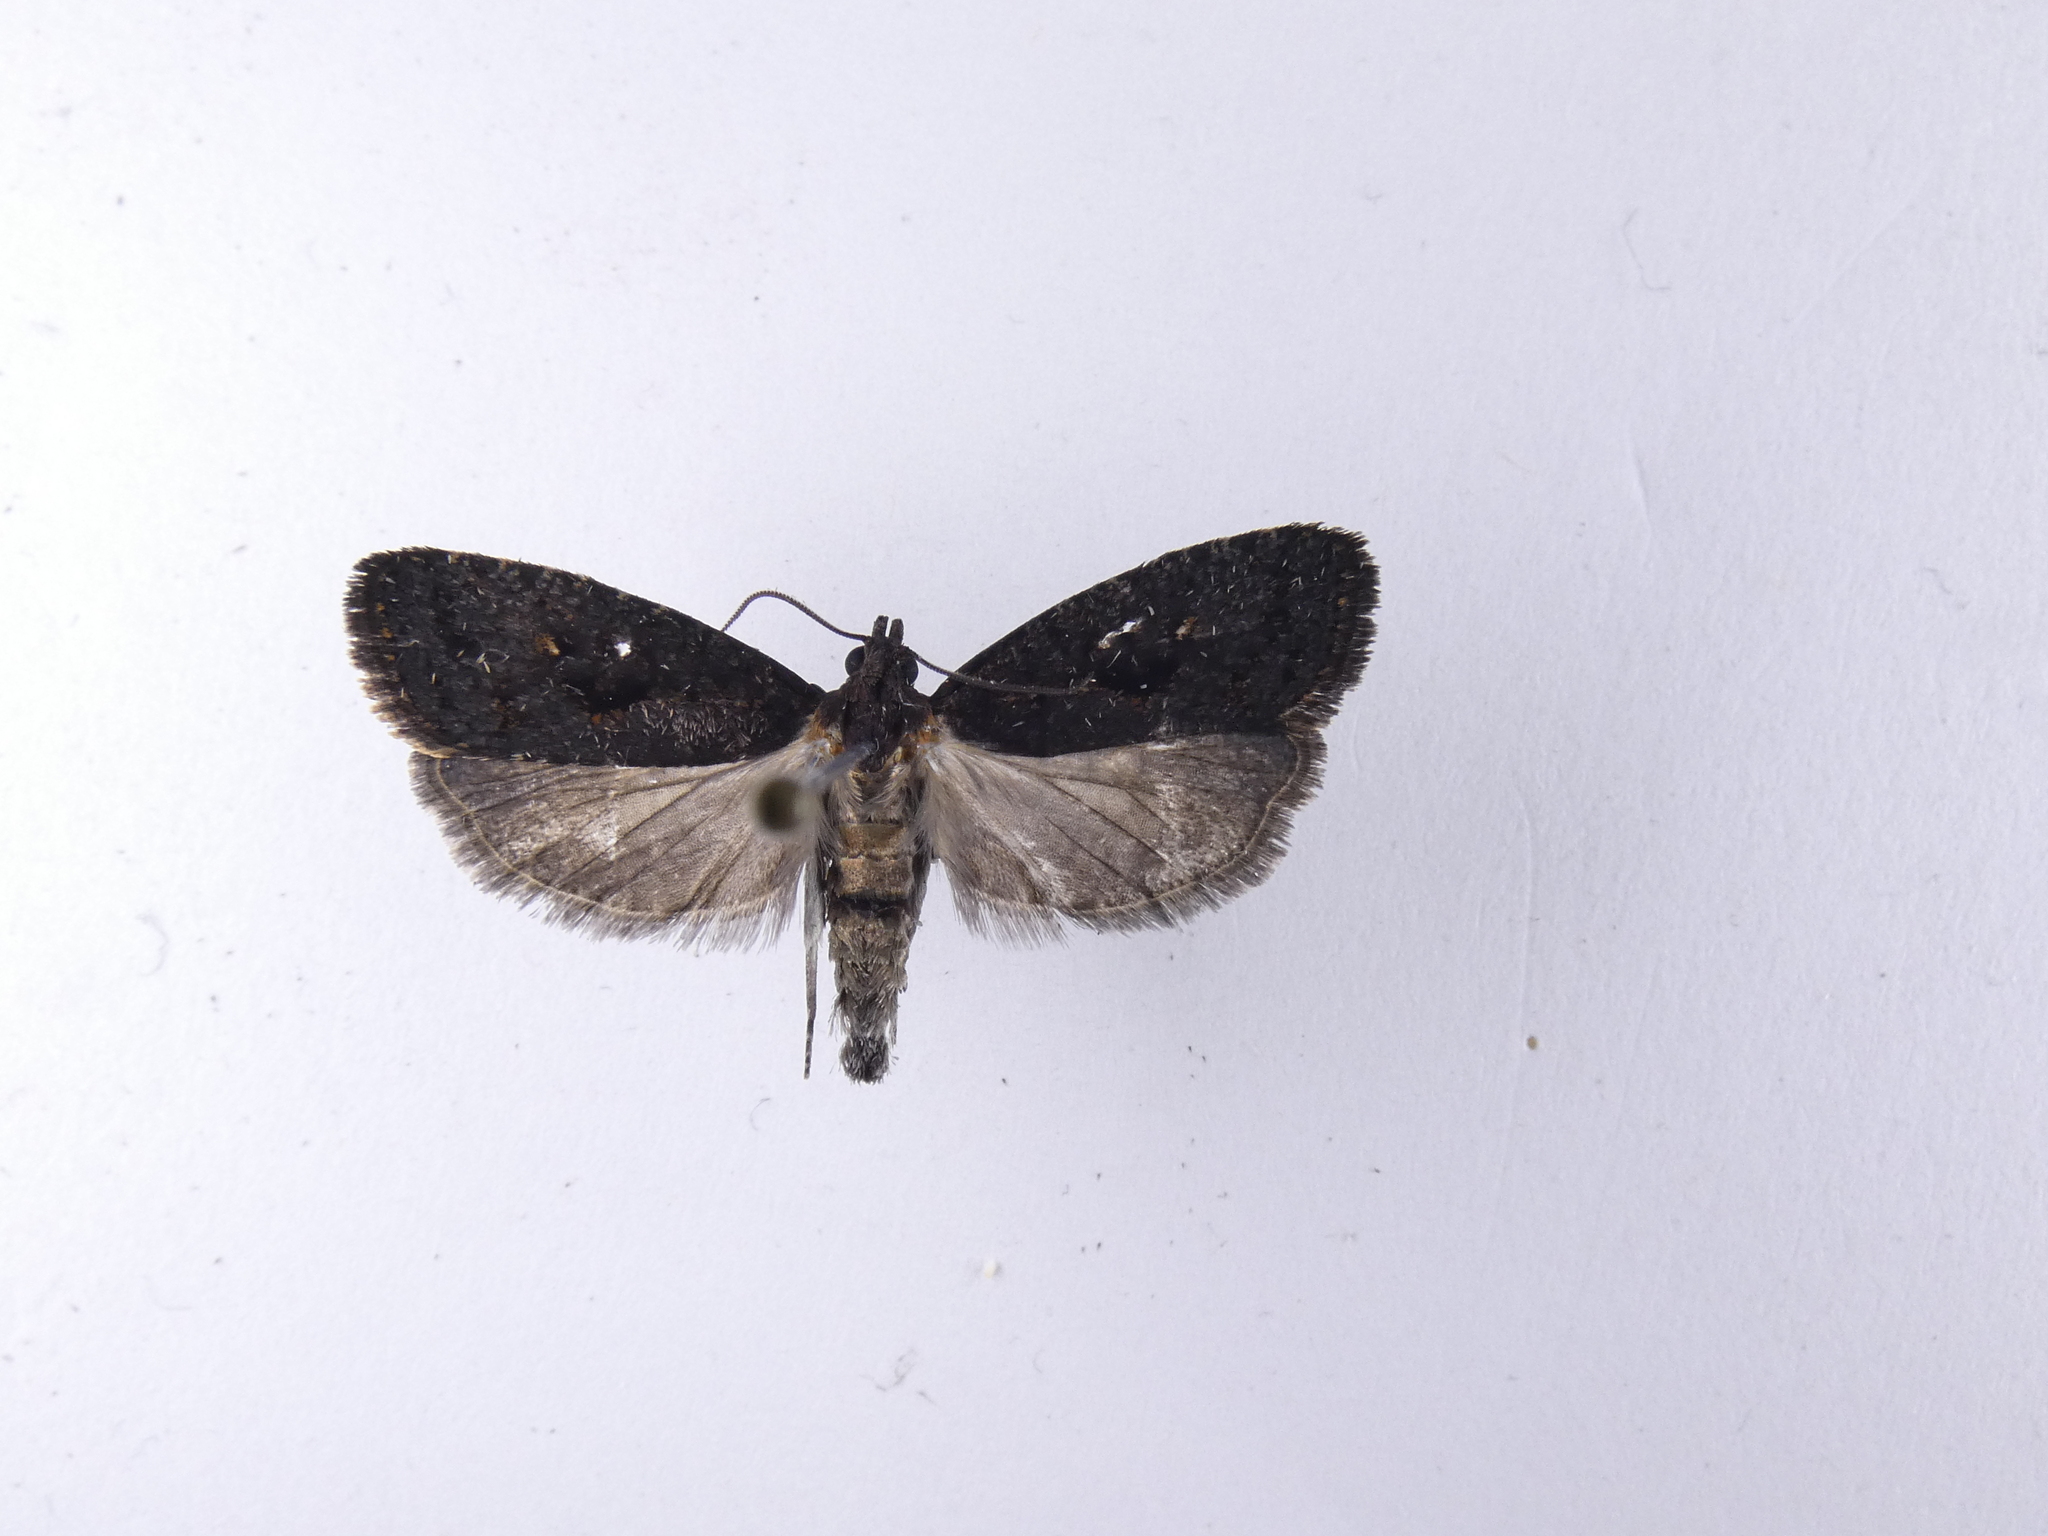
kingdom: Animalia
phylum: Arthropoda
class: Insecta
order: Lepidoptera
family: Tortricidae
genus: Cryptaspasma
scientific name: Cryptaspasma querula
